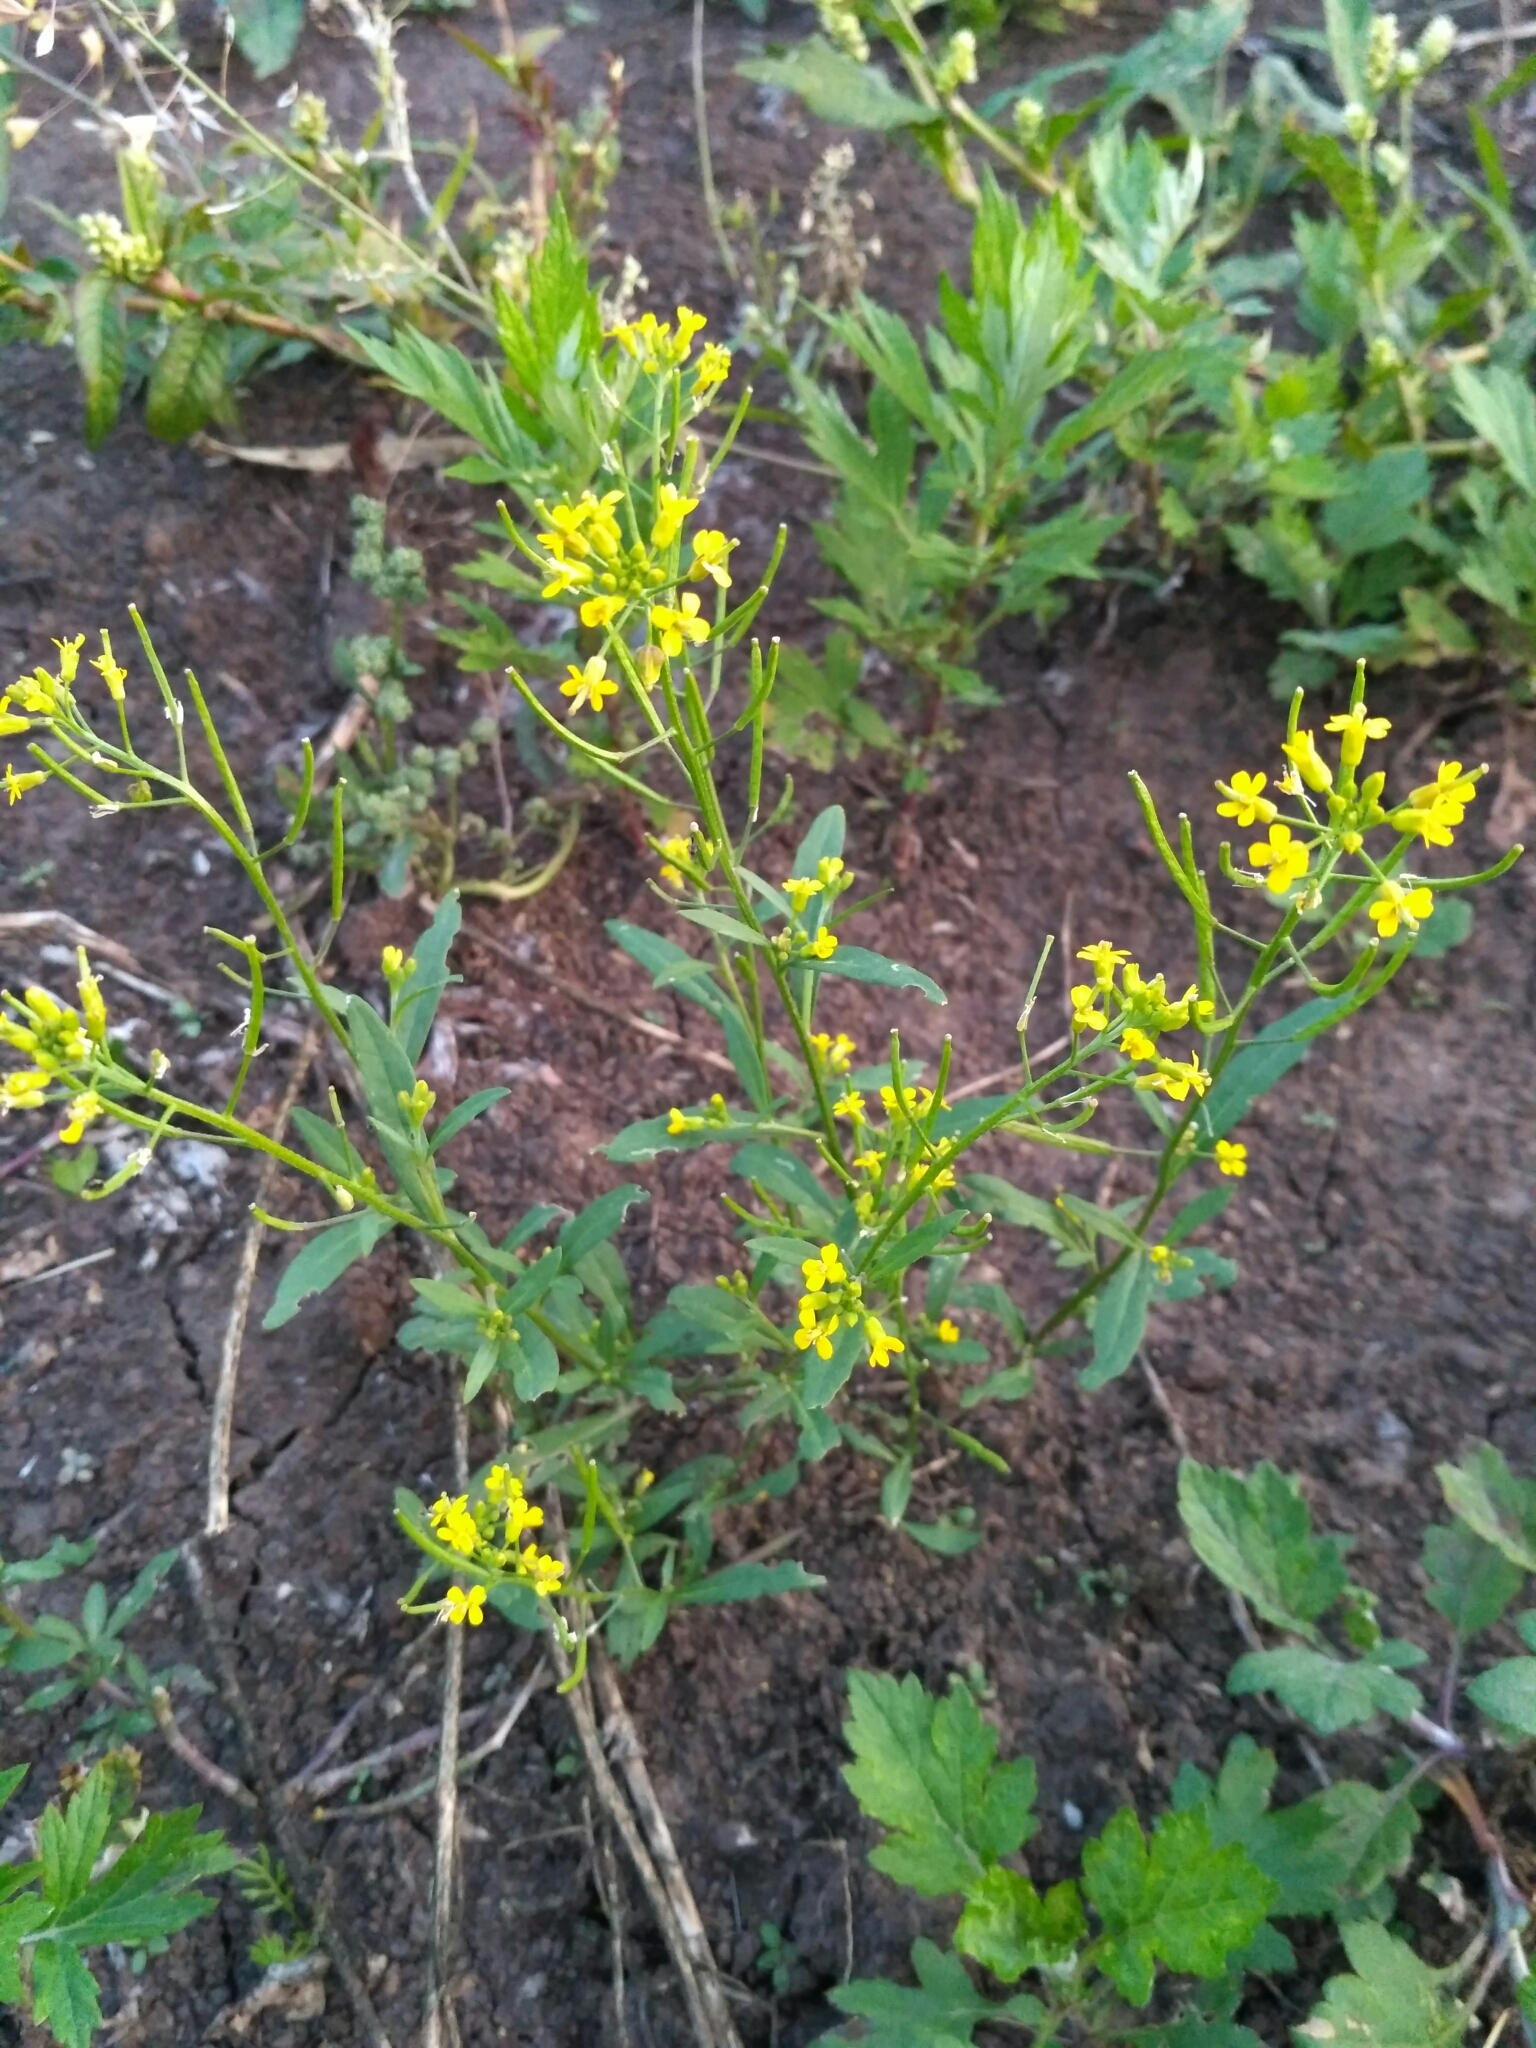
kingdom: Plantae
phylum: Tracheophyta
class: Magnoliopsida
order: Brassicales
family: Brassicaceae
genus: Erysimum
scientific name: Erysimum cheiranthoides
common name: Treacle mustard
